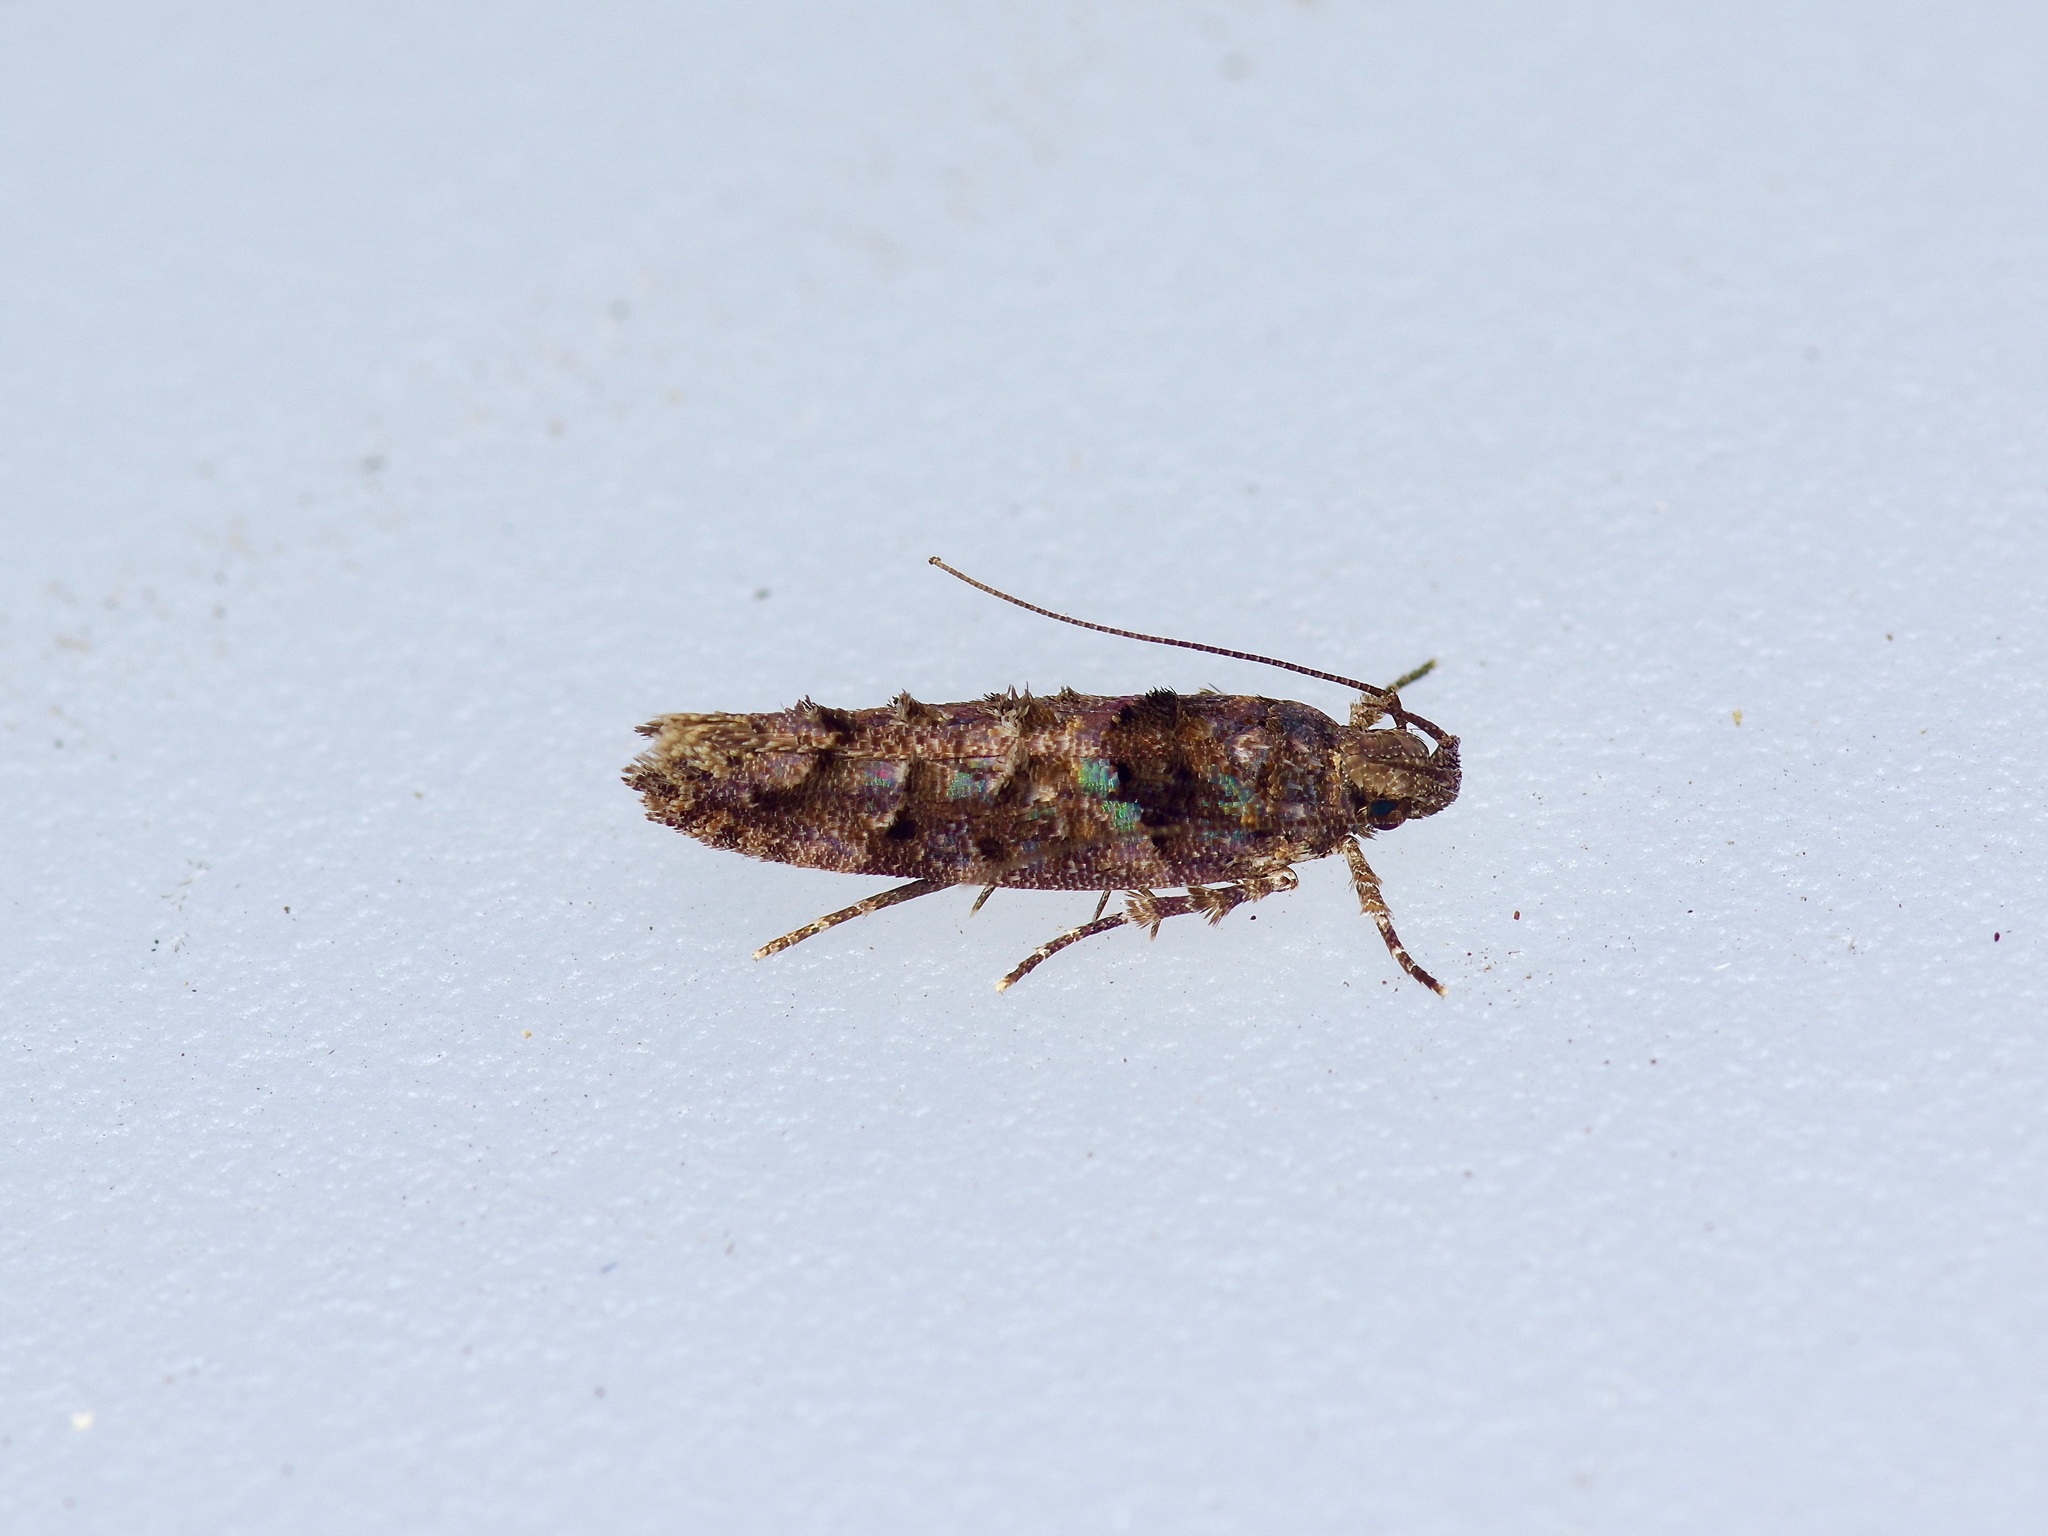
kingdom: Animalia
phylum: Arthropoda
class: Insecta
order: Lepidoptera
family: Gelechiidae
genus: Telphusa
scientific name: Telphusa perspicua
